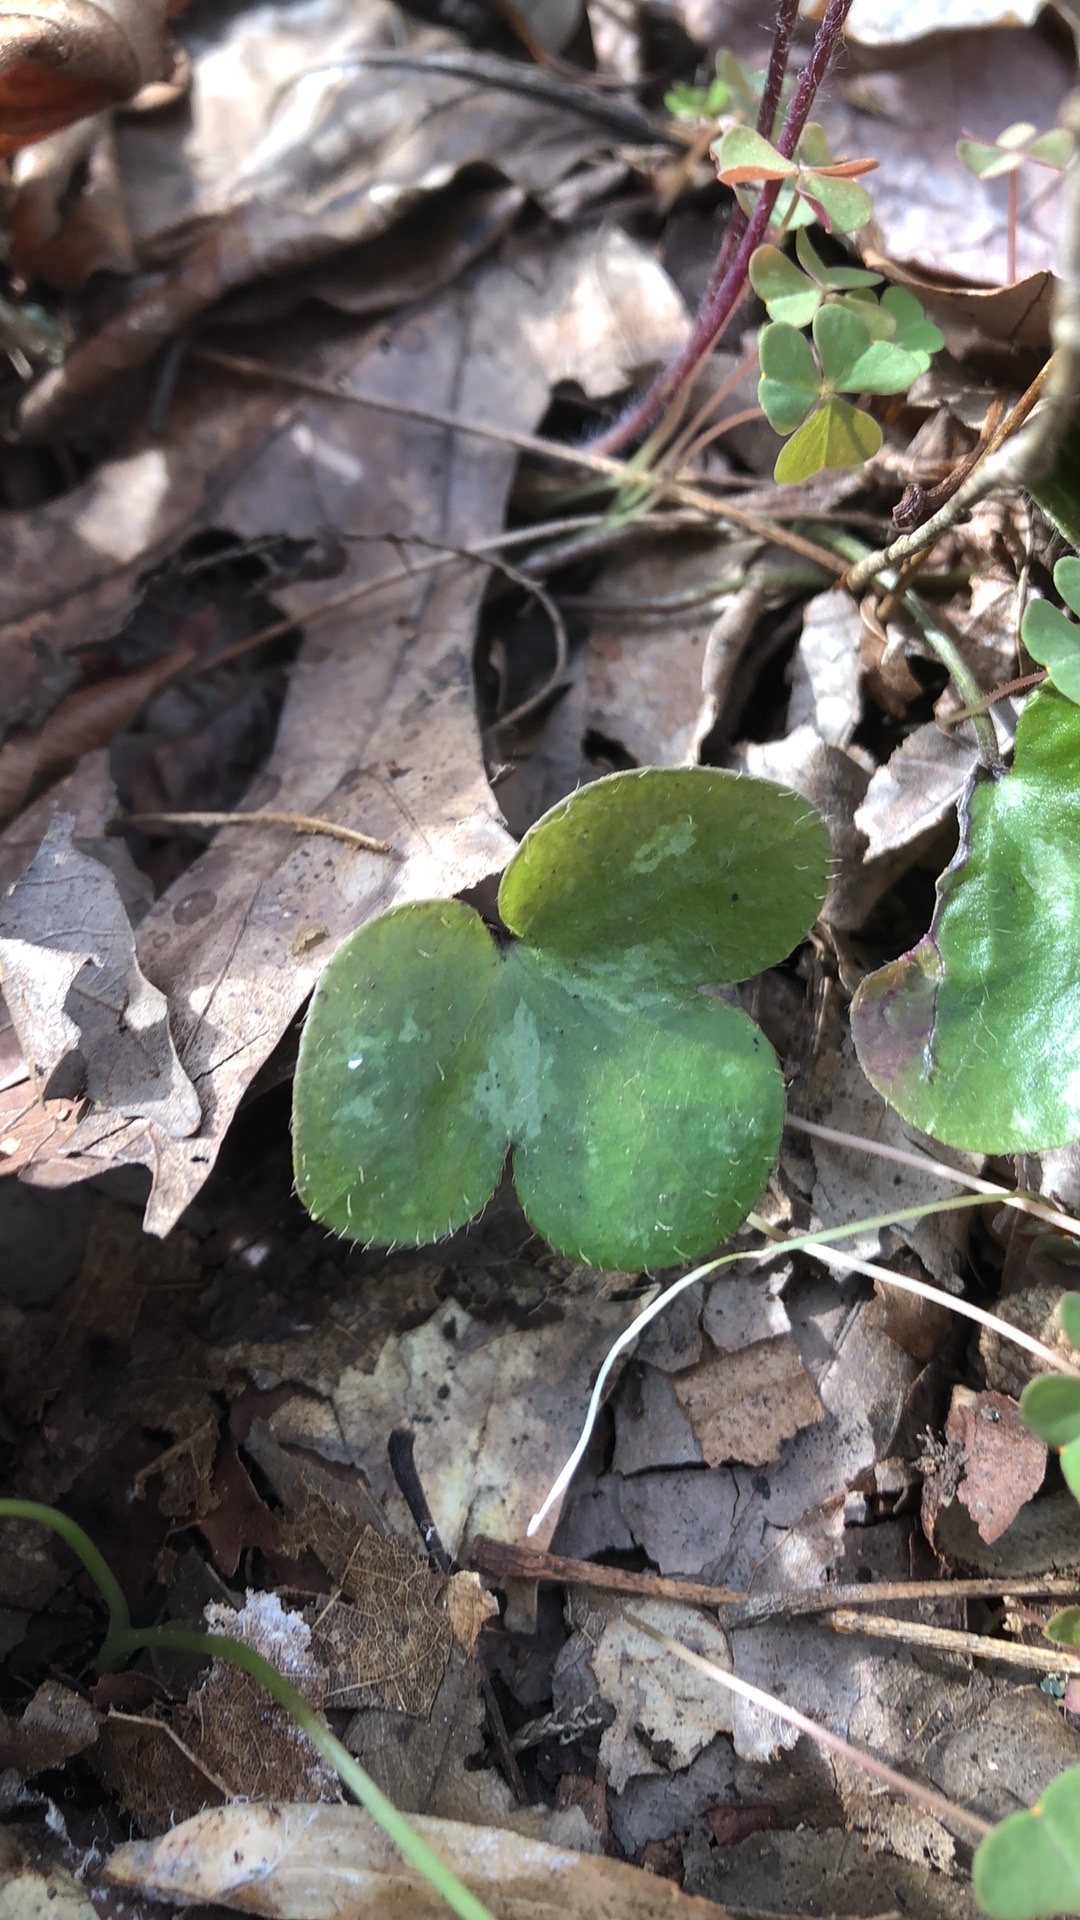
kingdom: Plantae
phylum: Tracheophyta
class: Magnoliopsida
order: Ranunculales
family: Ranunculaceae
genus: Hepatica
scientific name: Hepatica americana
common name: American hepatica
